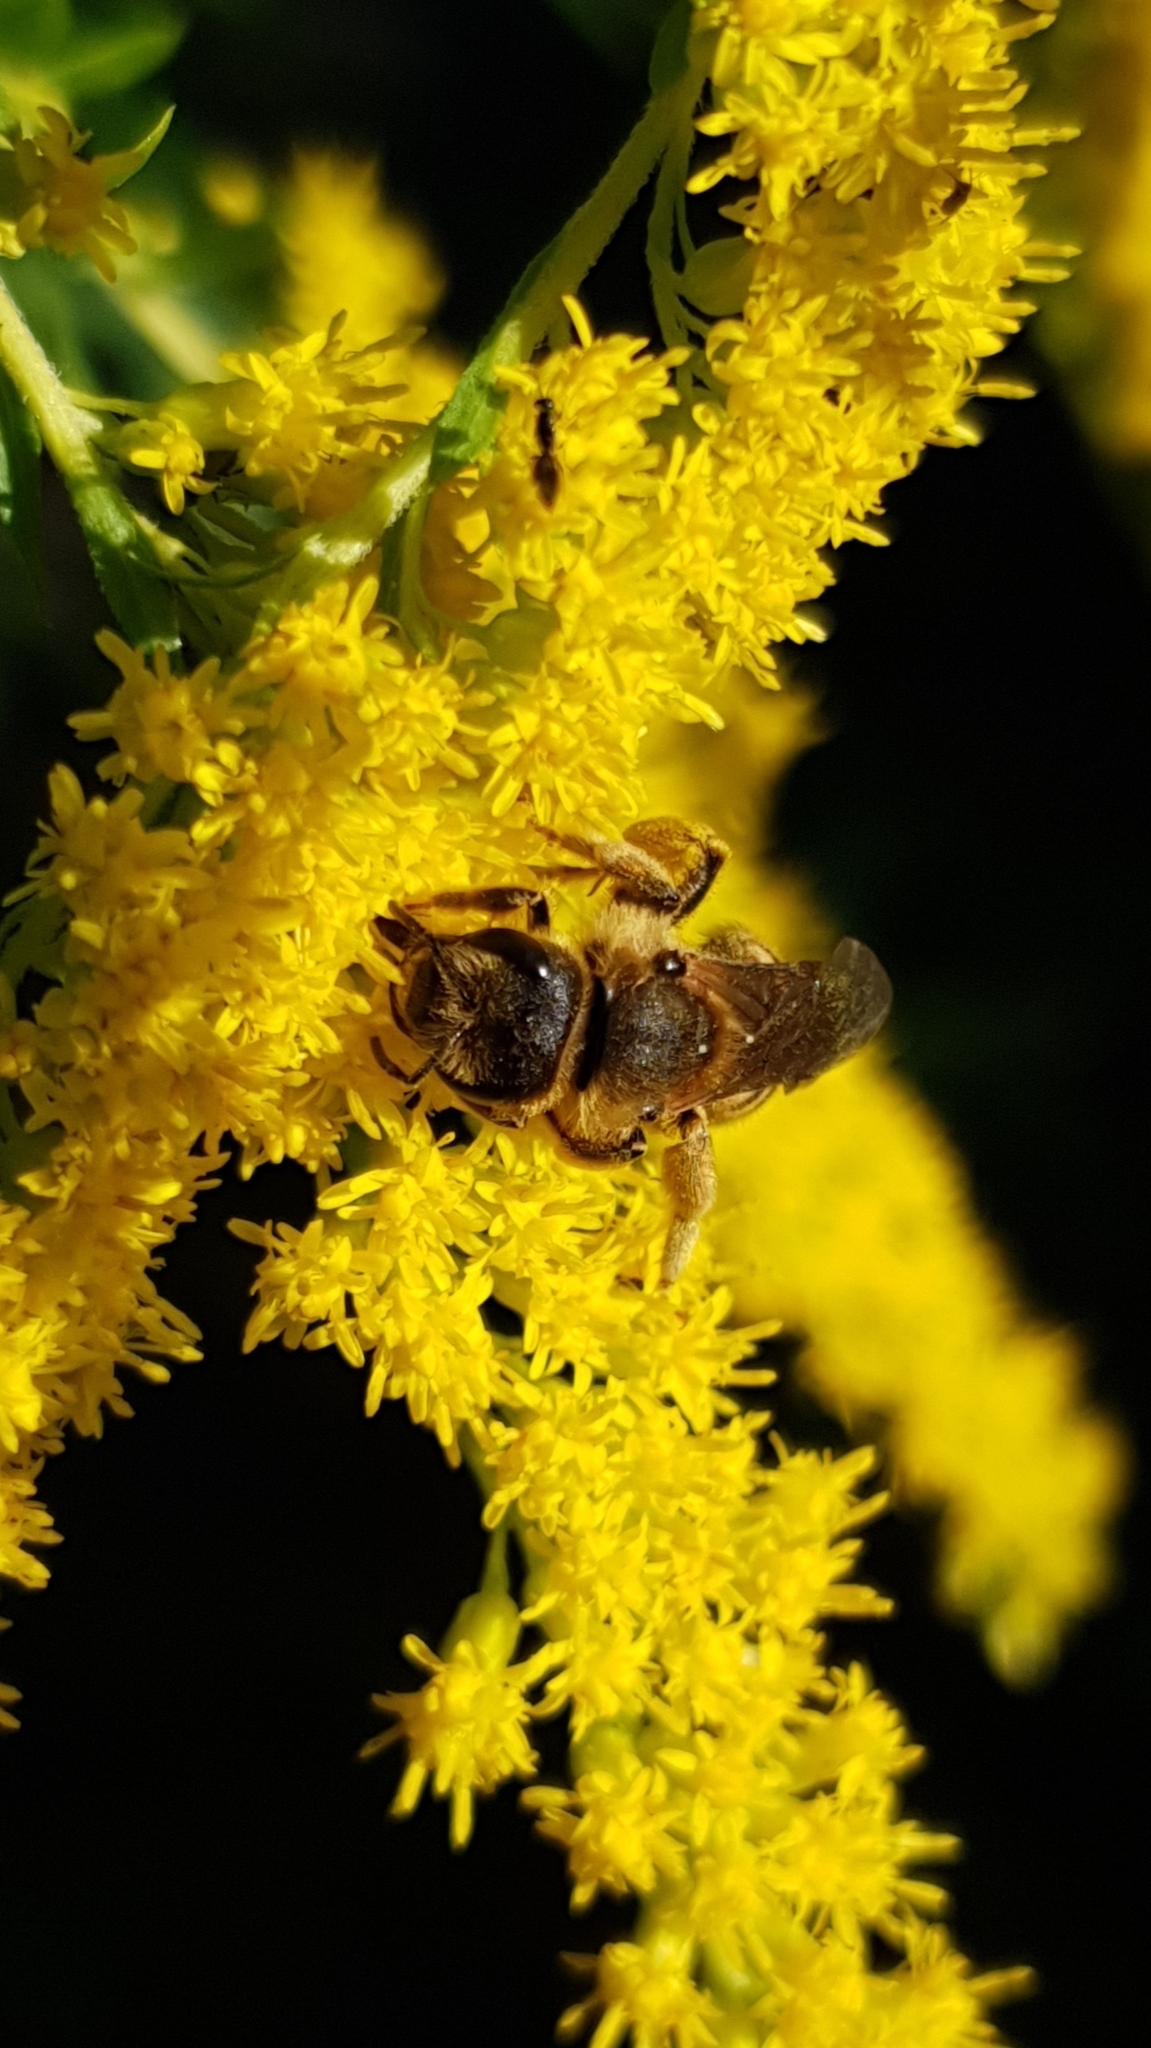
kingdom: Animalia
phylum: Arthropoda
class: Insecta
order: Hymenoptera
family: Halictidae
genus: Halictus
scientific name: Halictus scabiosae
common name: Great banded furrow bee
